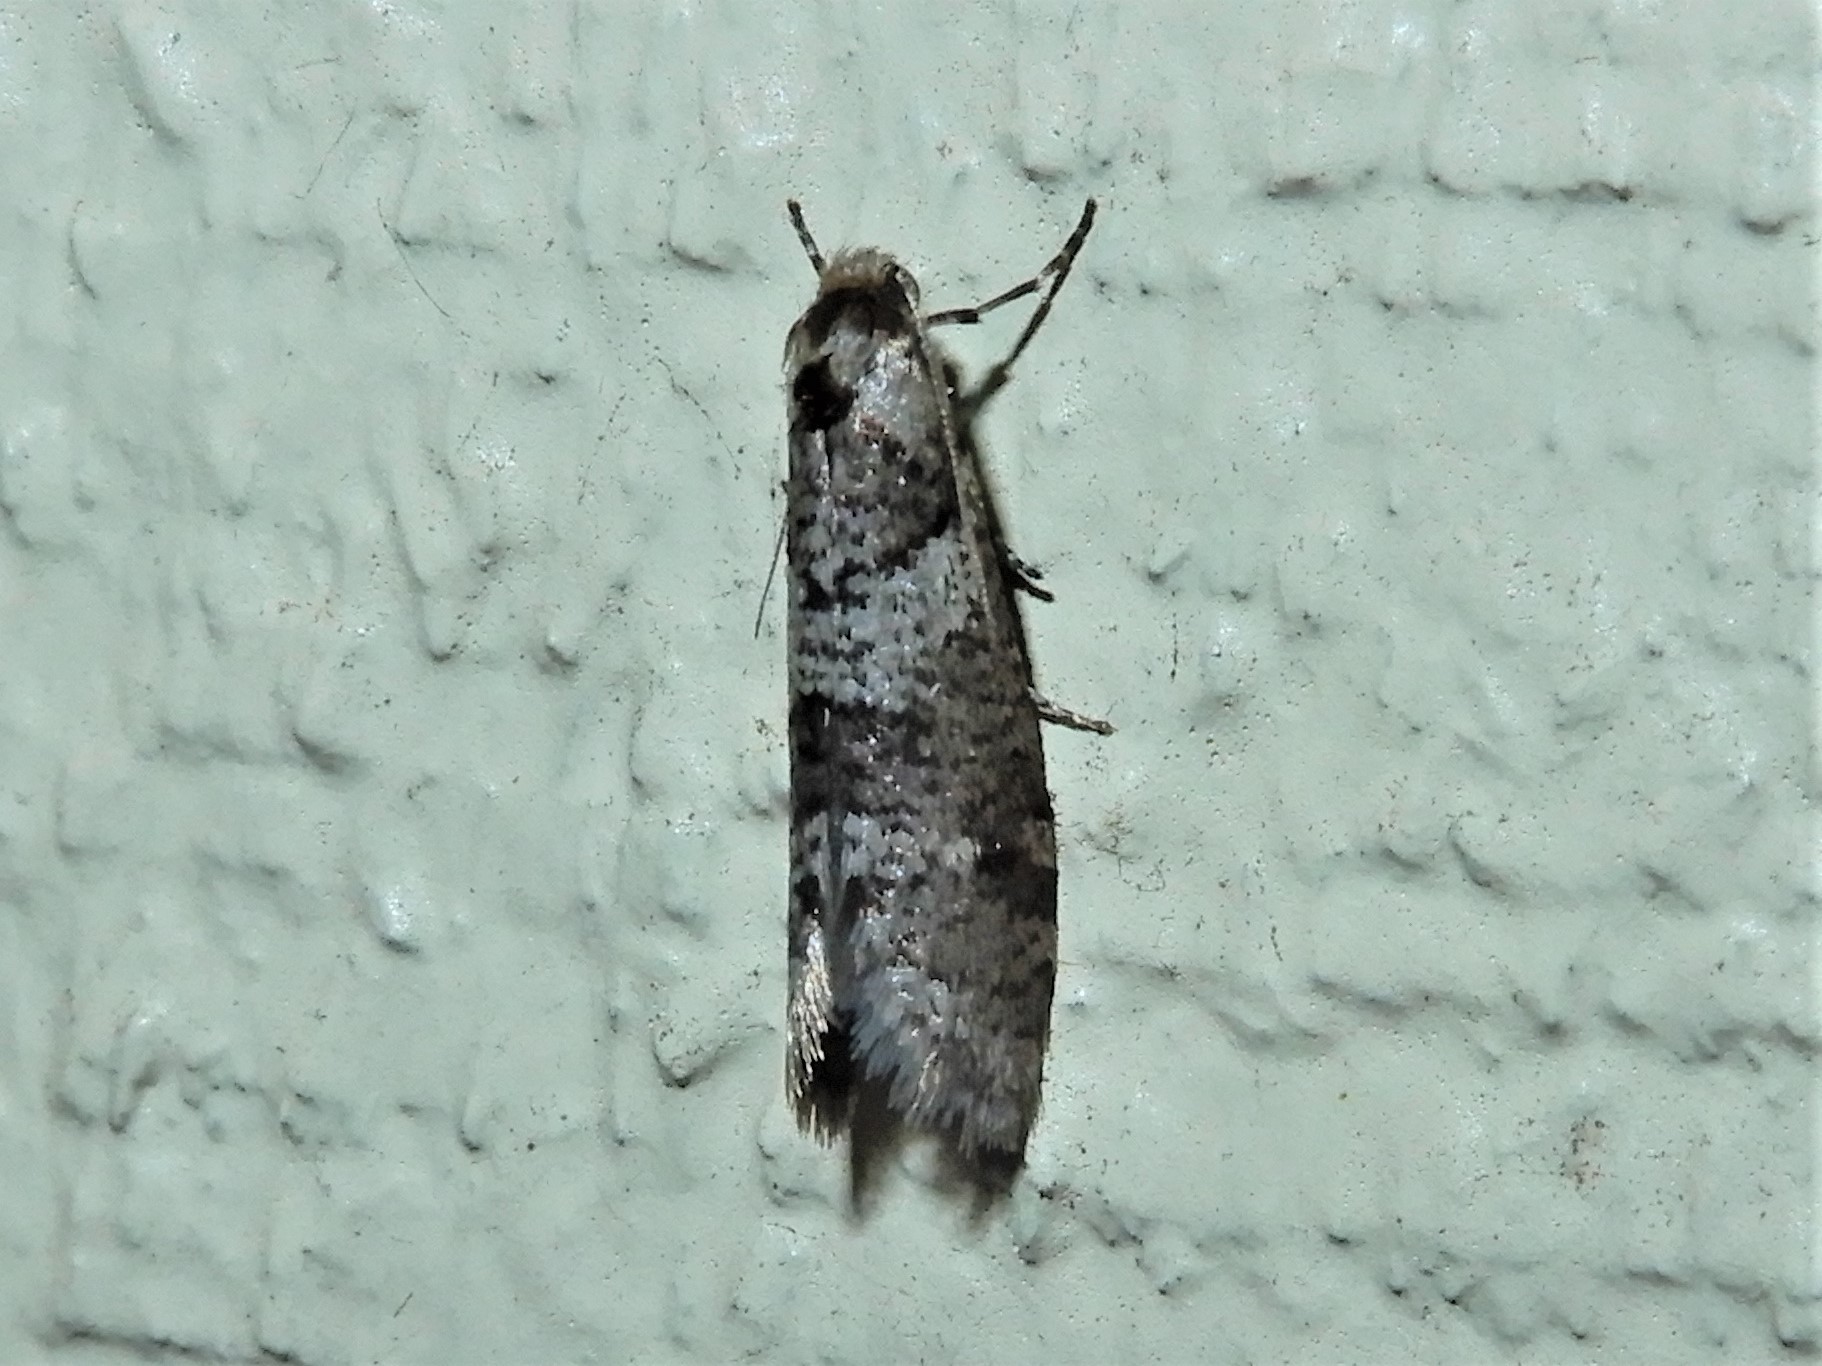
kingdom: Animalia
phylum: Arthropoda
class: Insecta
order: Lepidoptera
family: Psychidae
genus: Lepidoscia
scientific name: Lepidoscia heliochares
